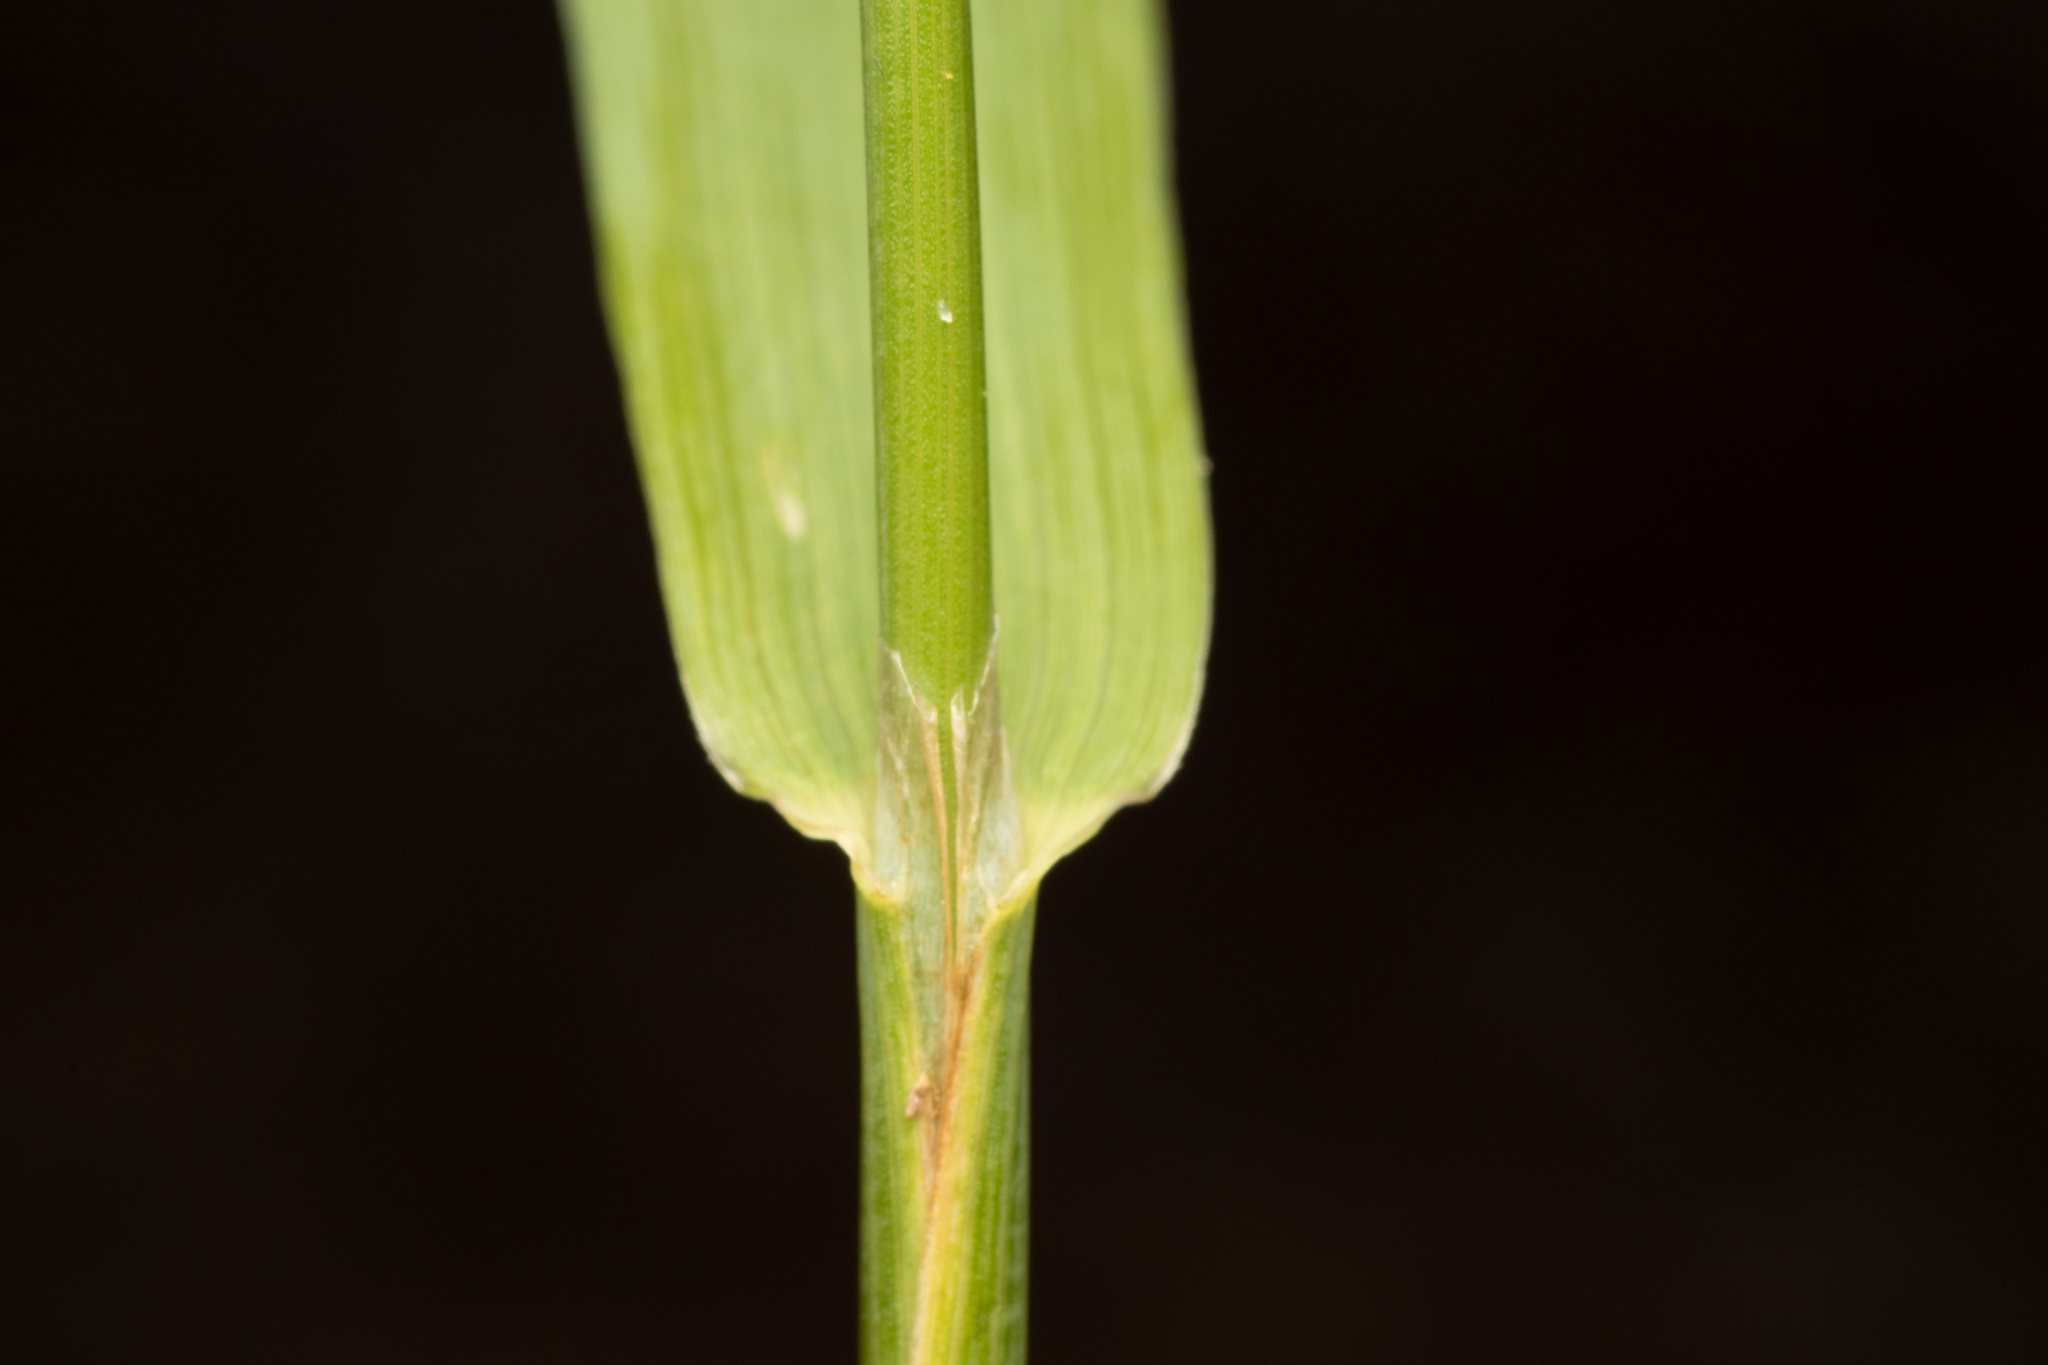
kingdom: Plantae
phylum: Tracheophyta
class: Liliopsida
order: Poales
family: Poaceae
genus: Phleum
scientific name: Phleum pratense
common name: Timothy grass
